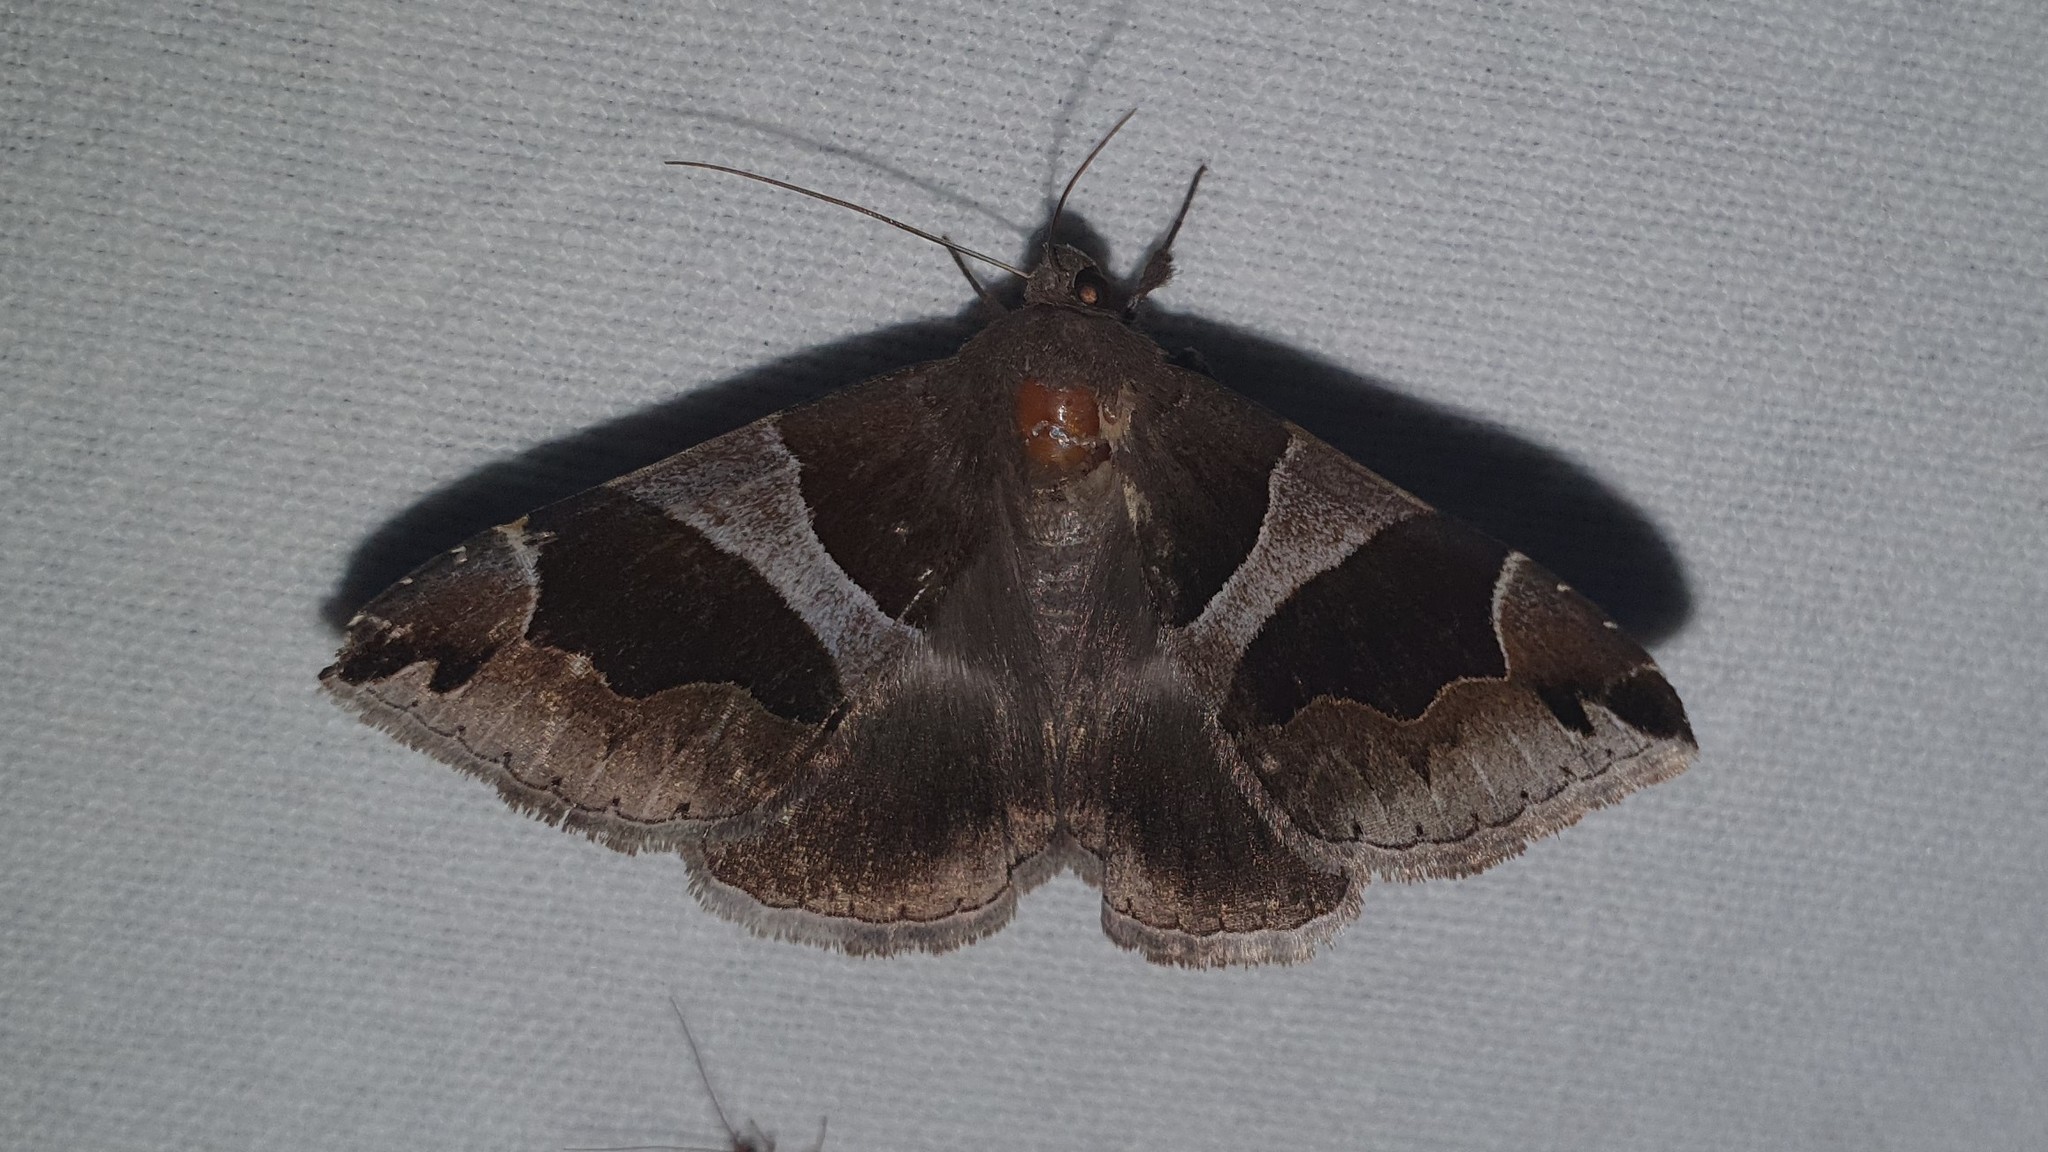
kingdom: Animalia
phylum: Arthropoda
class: Insecta
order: Lepidoptera
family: Erebidae
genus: Dysgonia
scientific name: Dysgonia algira
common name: Passenger
